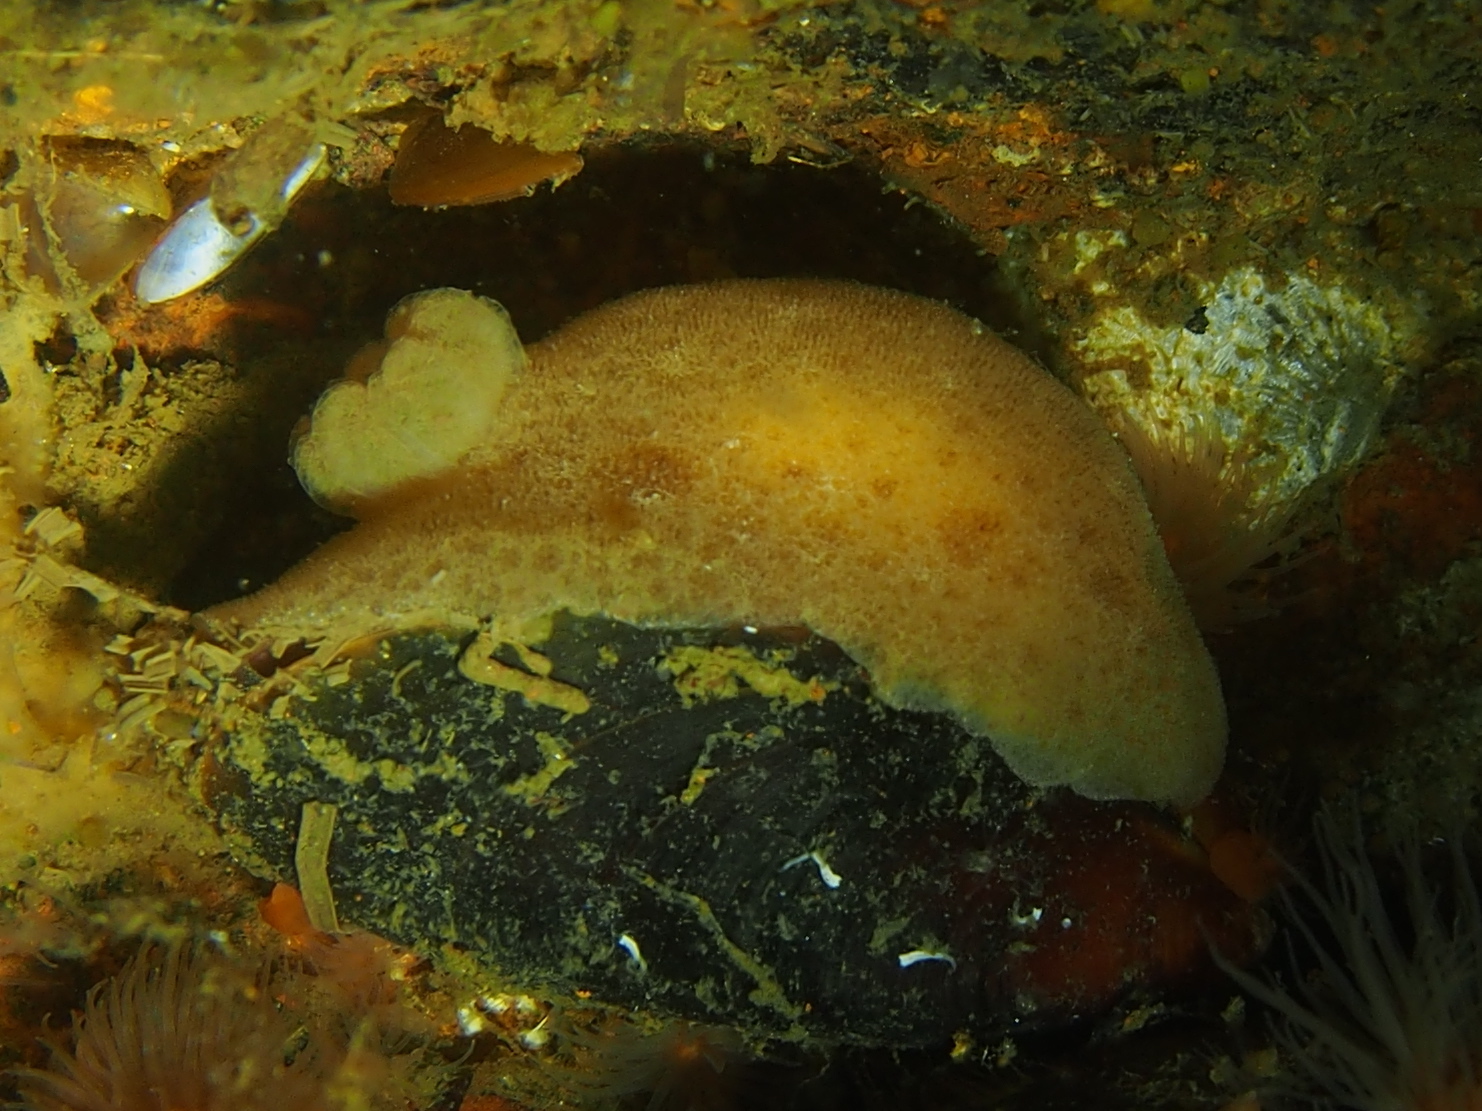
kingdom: Animalia
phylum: Mollusca
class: Gastropoda
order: Nudibranchia
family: Discodorididae
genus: Jorunna
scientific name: Jorunna tomentosa
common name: Grey sea slug
